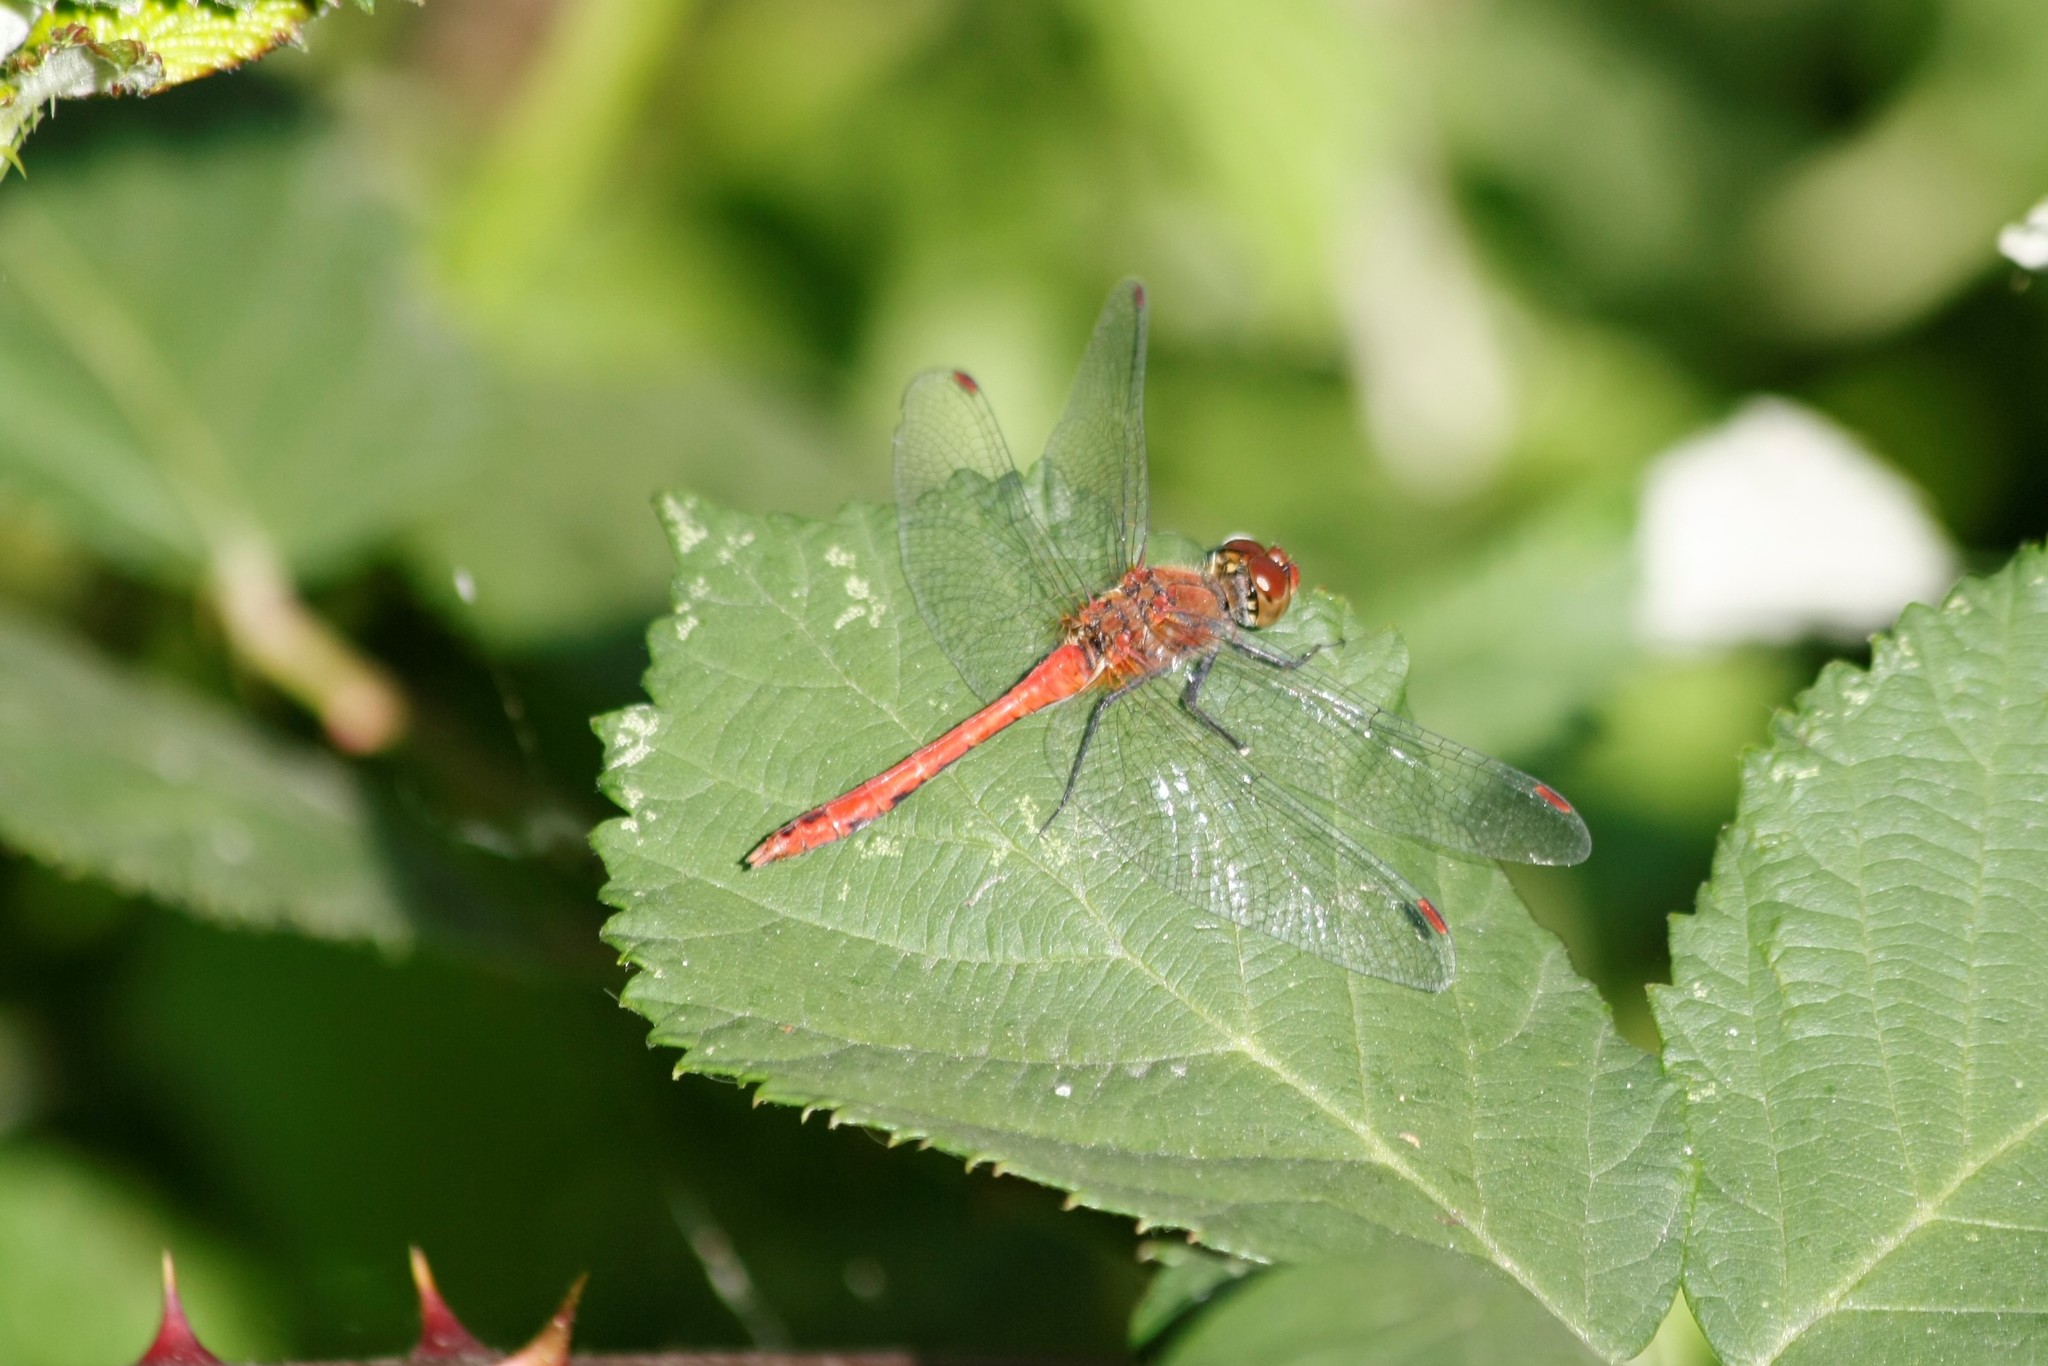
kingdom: Animalia
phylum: Arthropoda
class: Insecta
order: Odonata
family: Libellulidae
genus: Sympetrum
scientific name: Sympetrum sanguineum
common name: Ruddy darter
